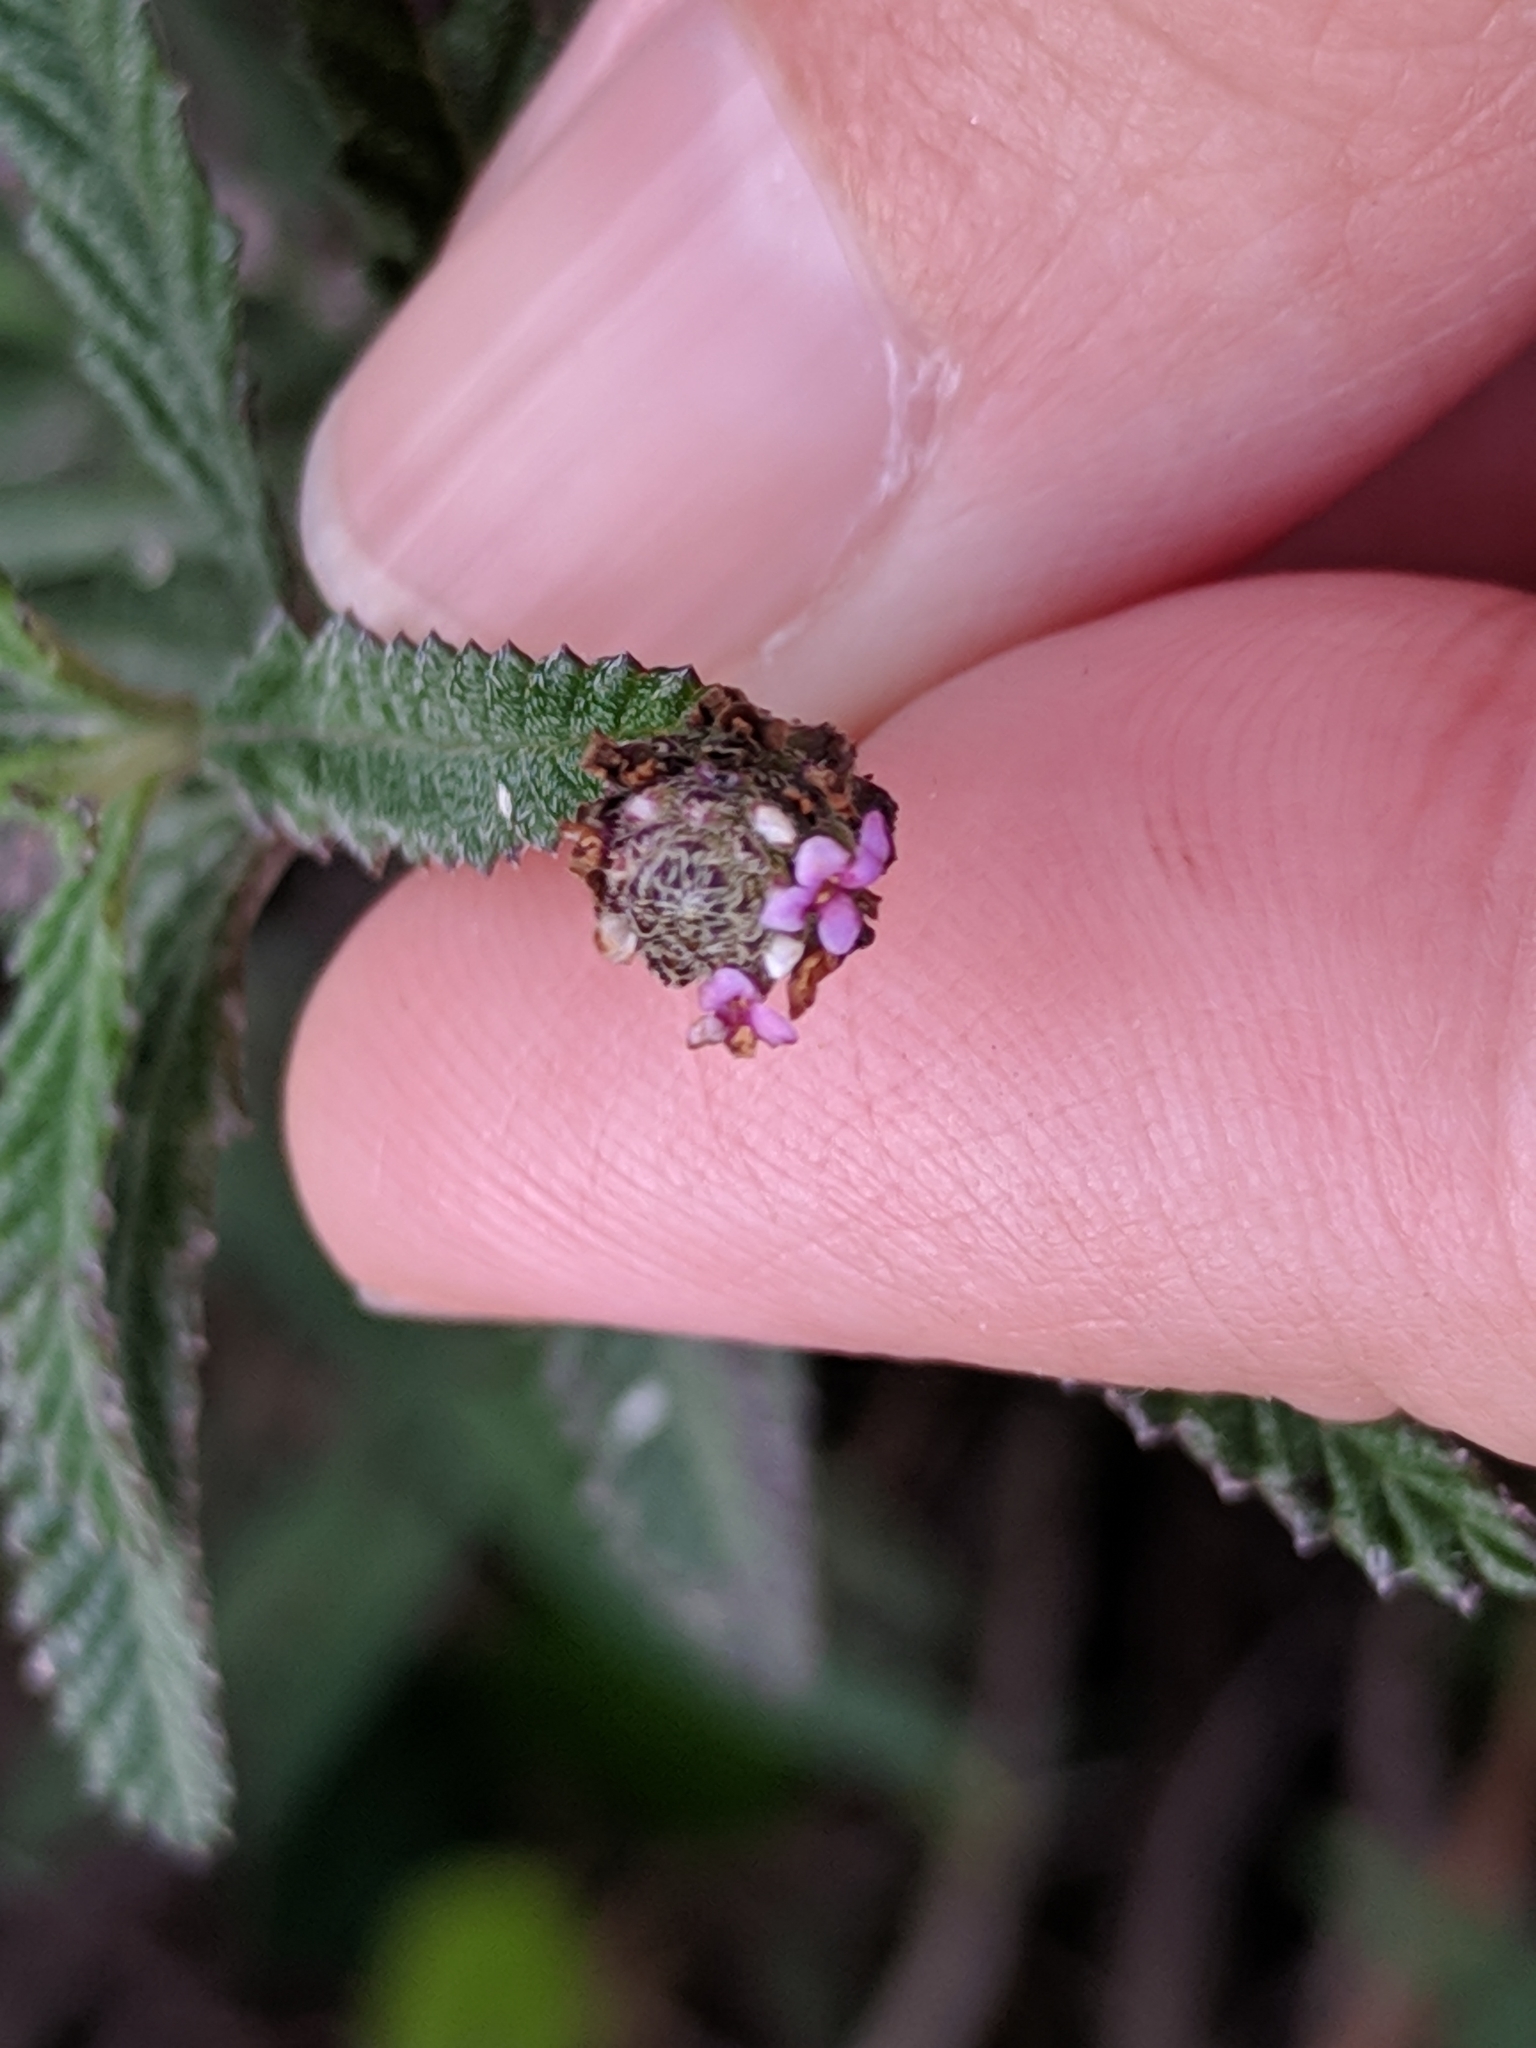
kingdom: Plantae
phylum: Tracheophyta
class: Magnoliopsida
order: Lamiales
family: Verbenaceae
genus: Lippia
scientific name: Lippia stoechadifolia
